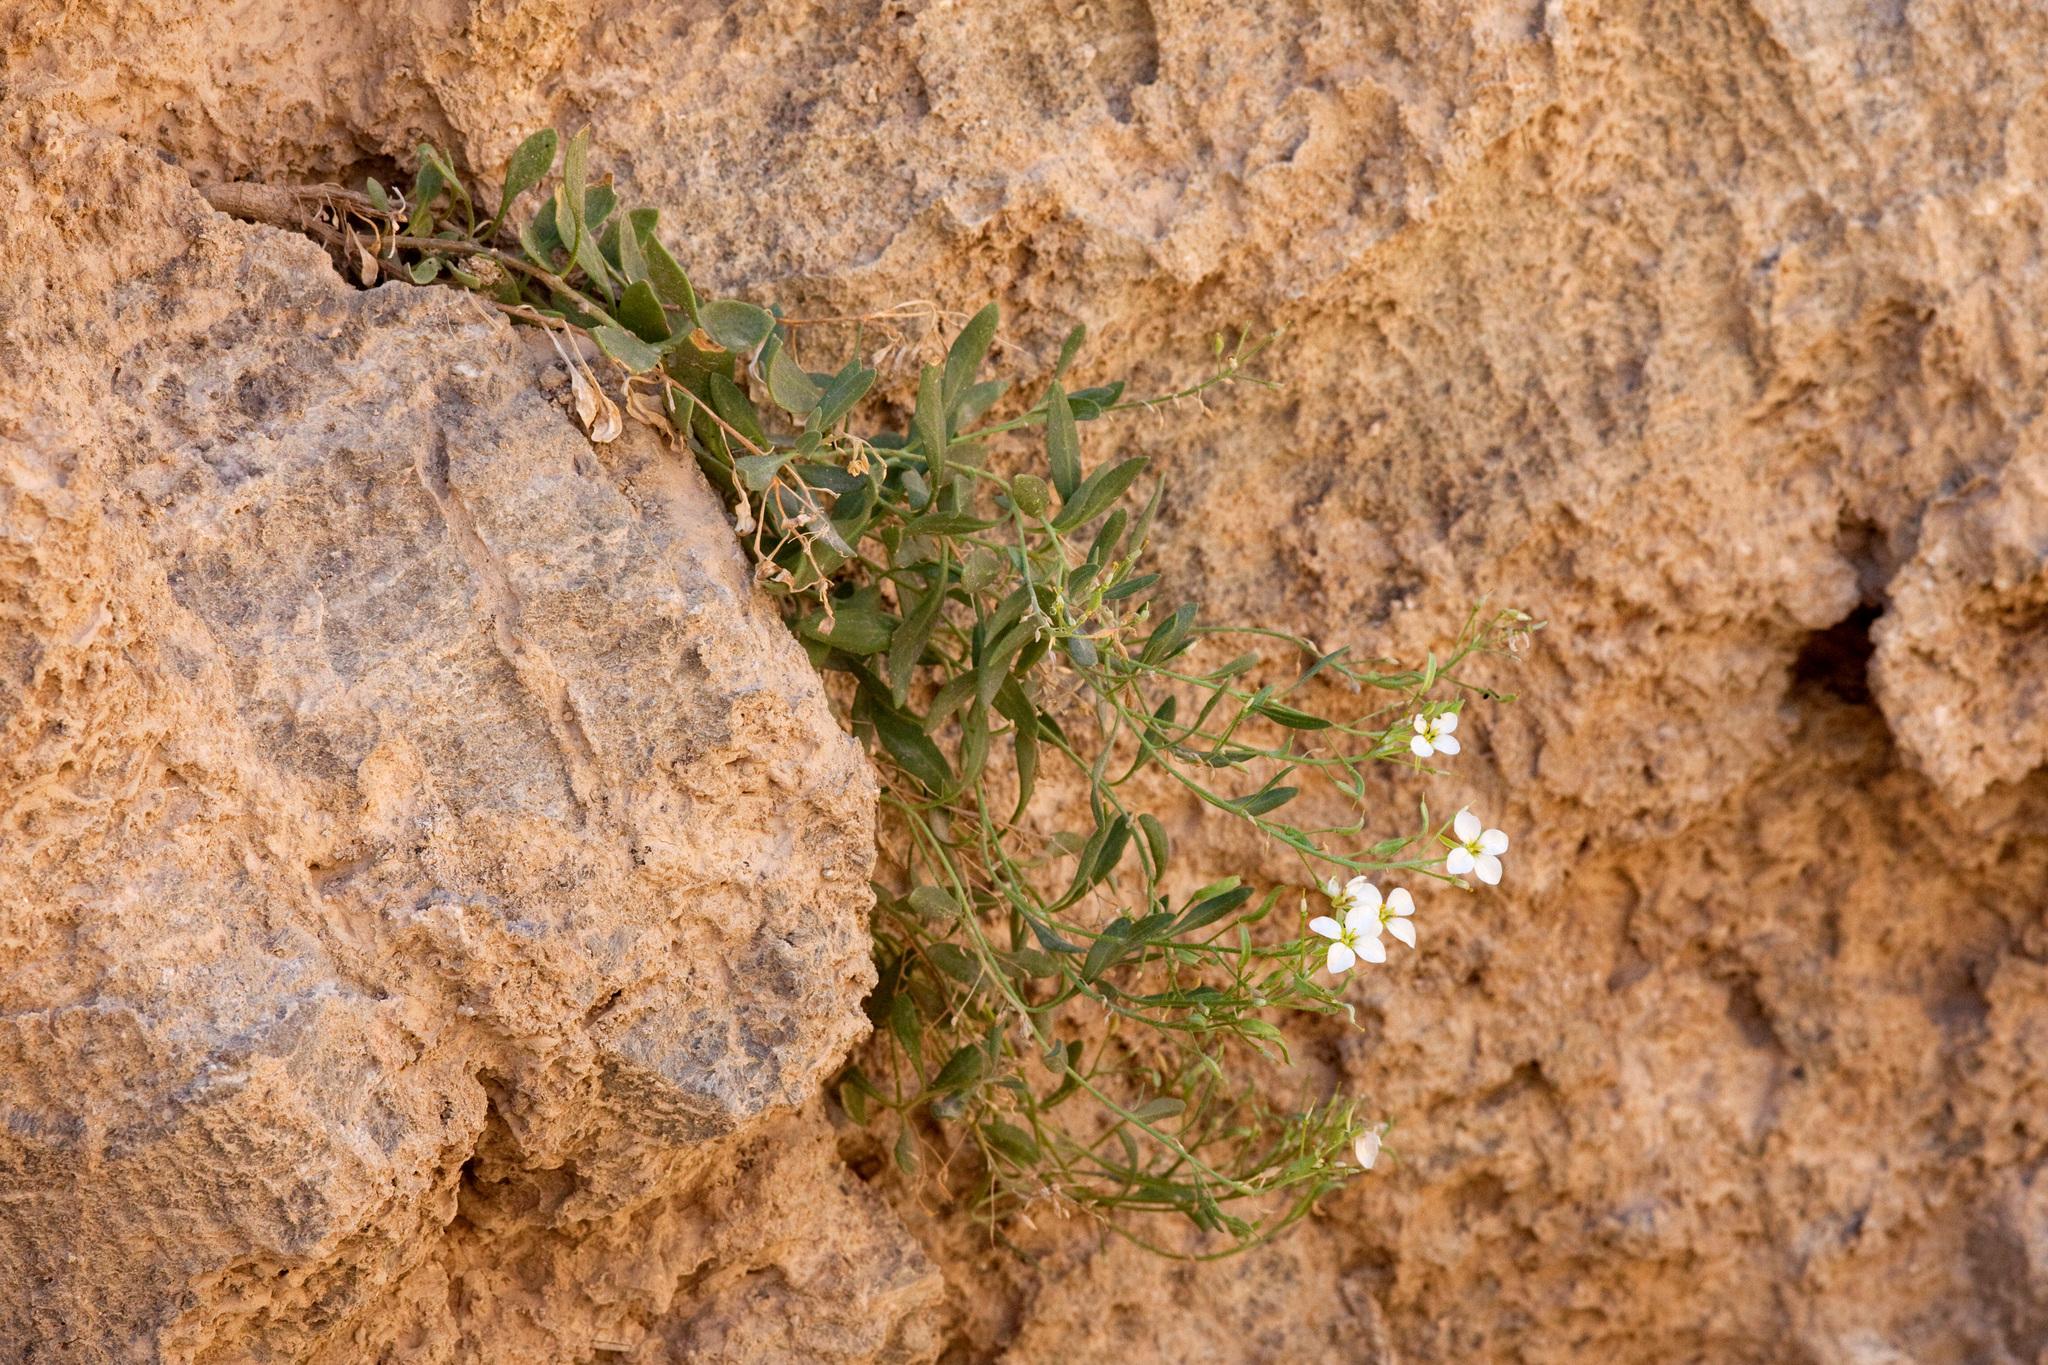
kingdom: Plantae
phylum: Tracheophyta
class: Magnoliopsida
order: Brassicales
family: Brassicaceae
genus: Nerisyrenia
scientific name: Nerisyrenia hypercorax
